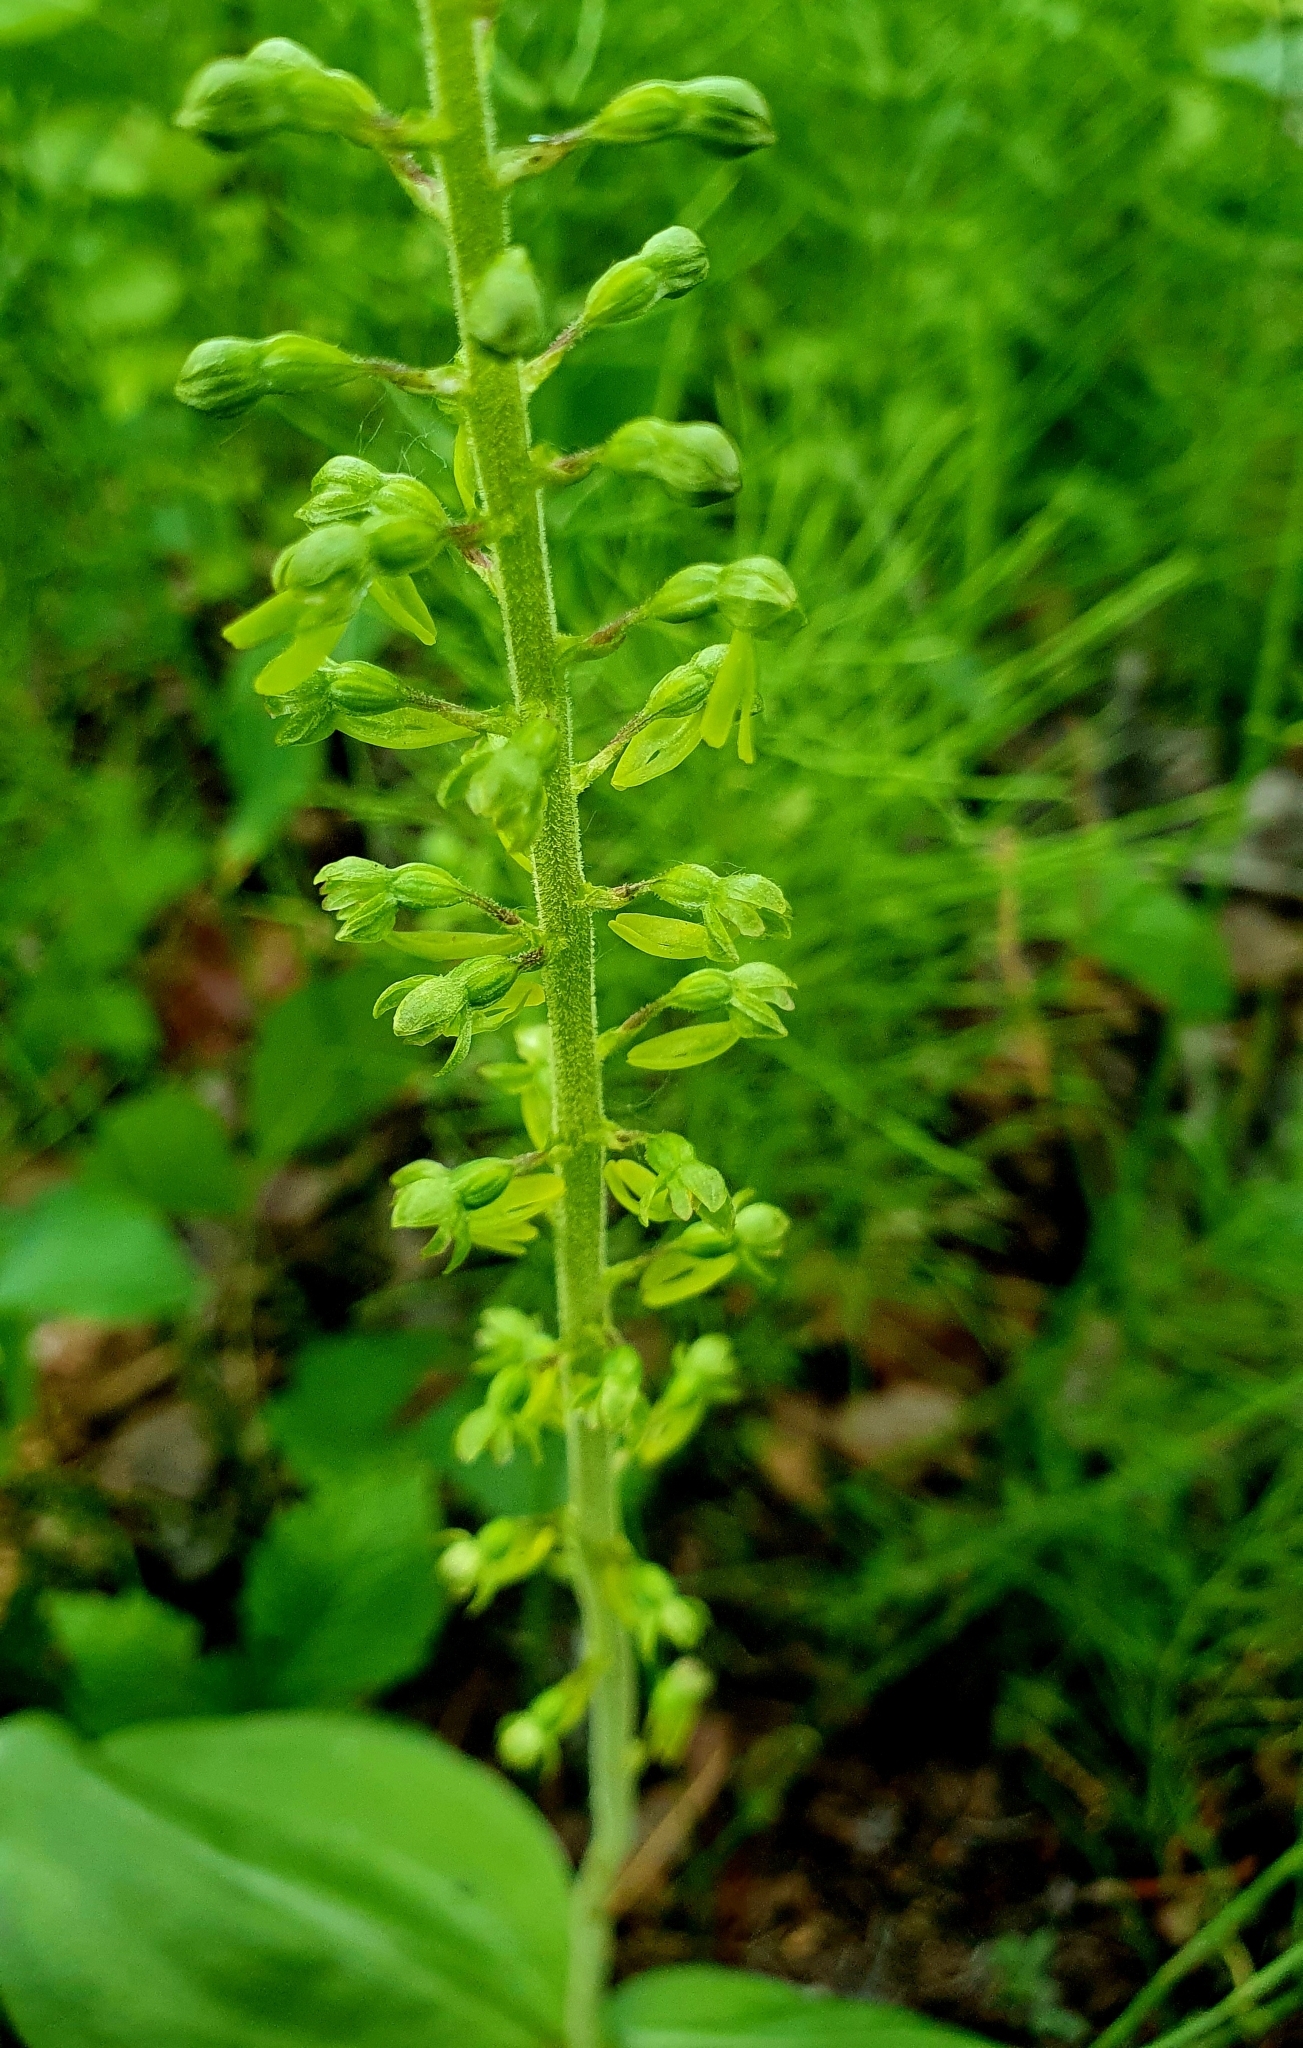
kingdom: Plantae
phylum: Tracheophyta
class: Liliopsida
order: Asparagales
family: Orchidaceae
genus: Neottia
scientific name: Neottia ovata
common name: Common twayblade
